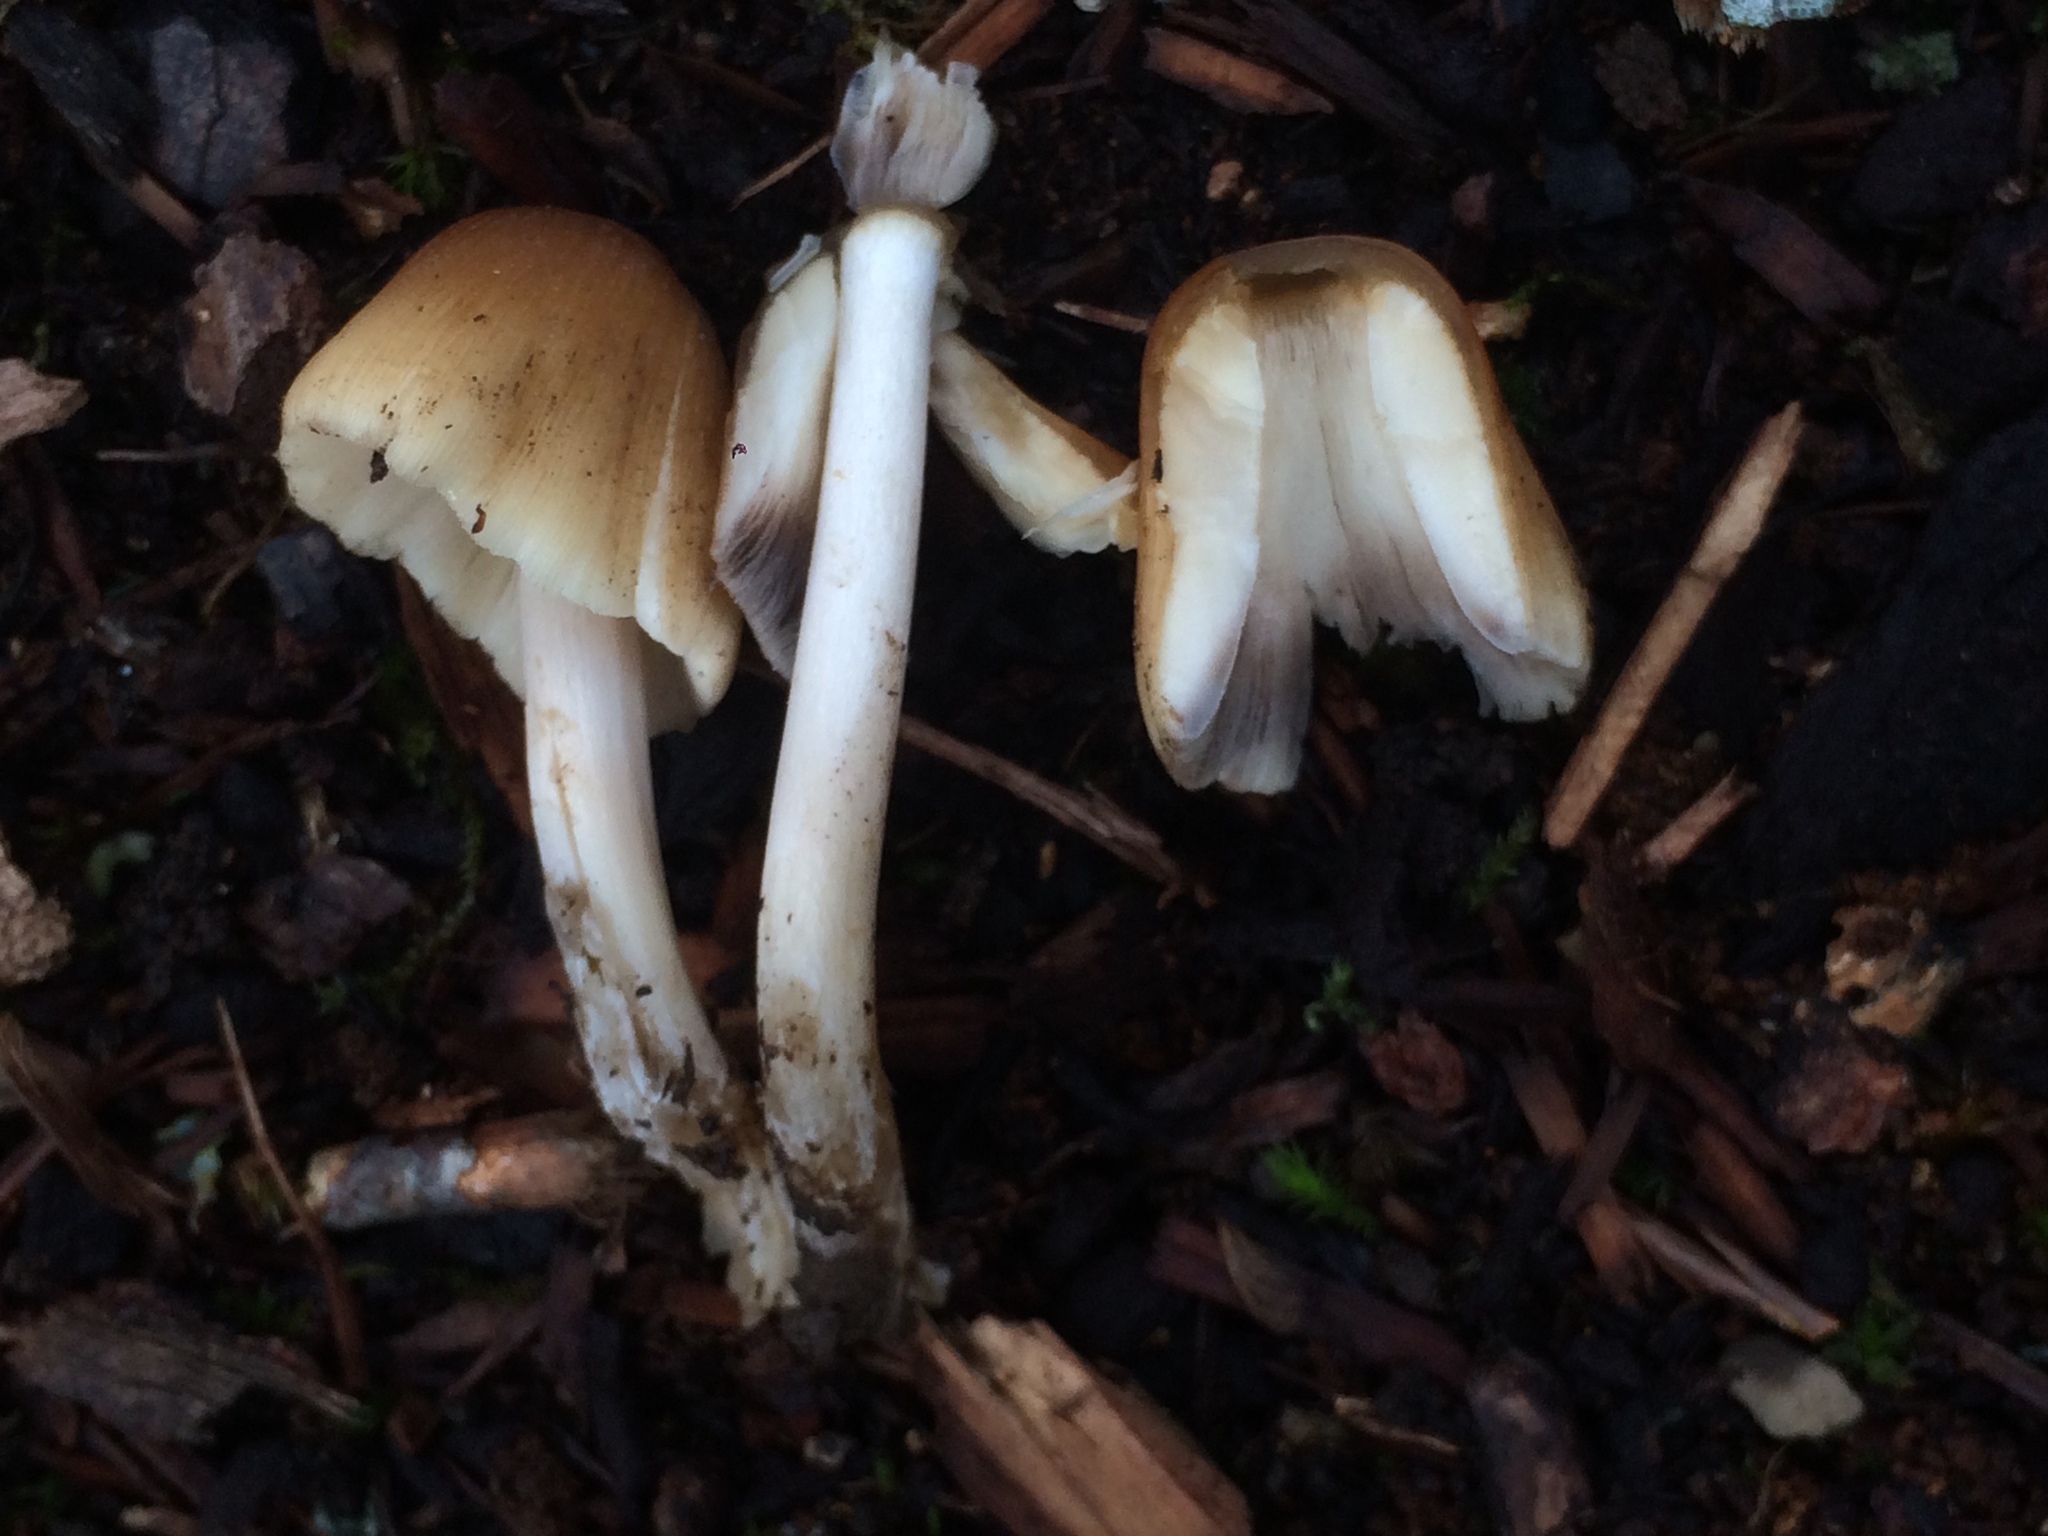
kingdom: Fungi
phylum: Basidiomycota
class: Agaricomycetes
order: Agaricales
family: Psathyrellaceae
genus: Coprinellus
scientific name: Coprinellus micaceus
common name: Glistening ink-cap
